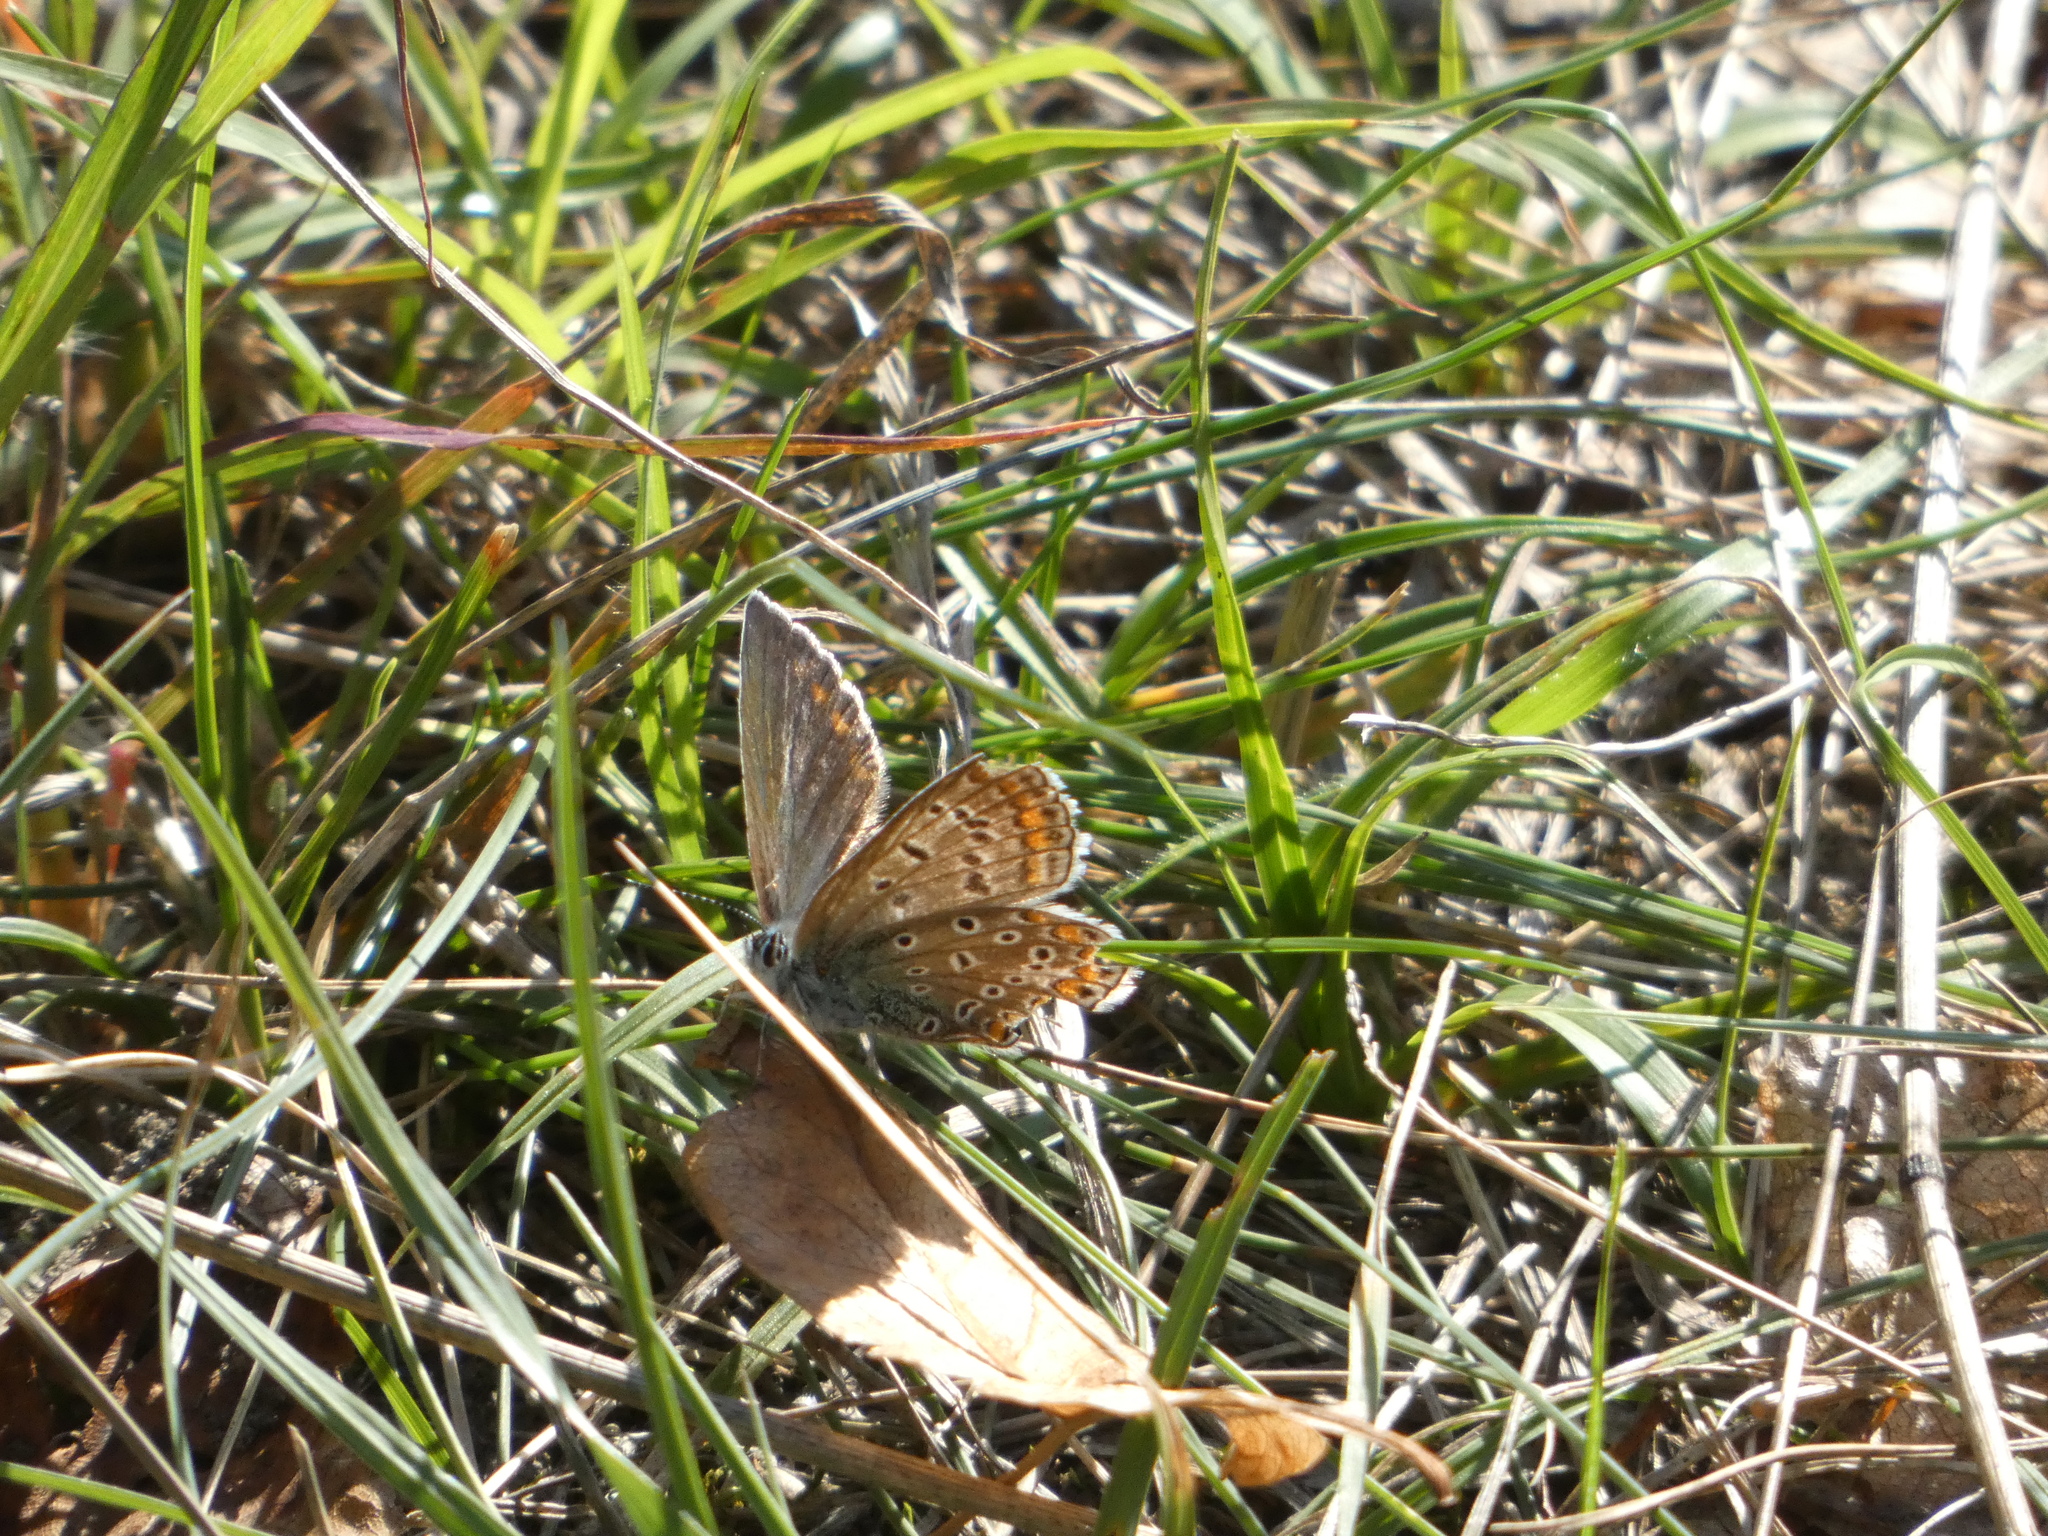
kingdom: Animalia
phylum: Arthropoda
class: Insecta
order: Lepidoptera
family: Lycaenidae
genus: Polyommatus
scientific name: Polyommatus icarus
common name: Common blue
